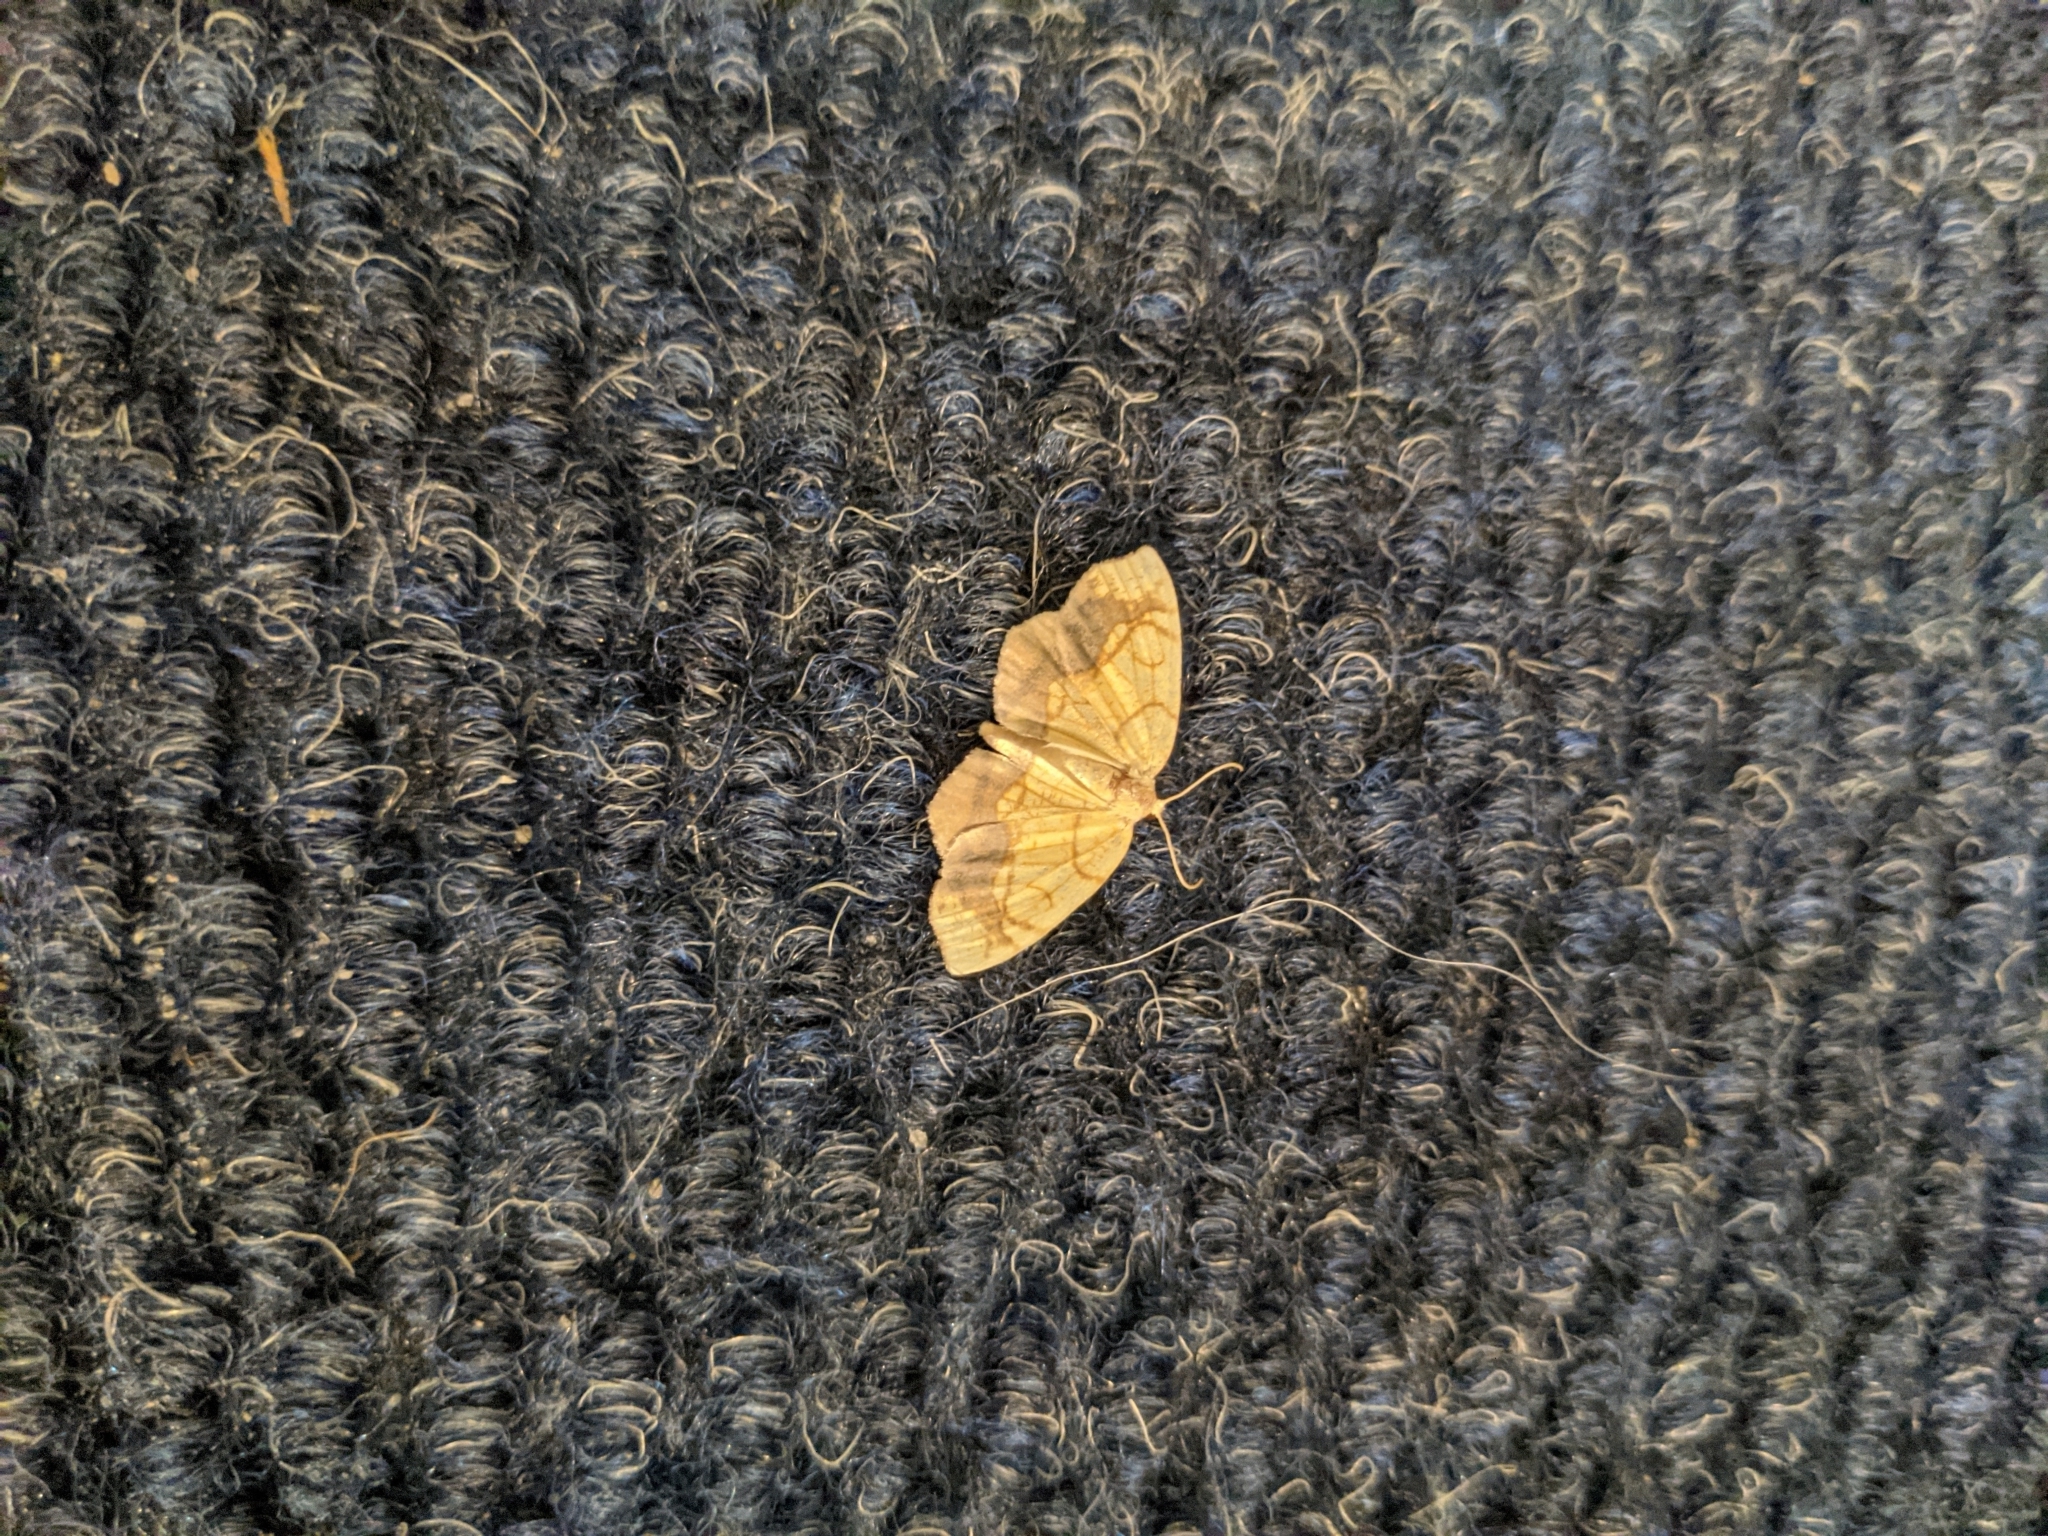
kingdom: Animalia
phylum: Arthropoda
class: Insecta
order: Lepidoptera
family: Geometridae
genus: Nematocampa
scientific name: Nematocampa resistaria
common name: Horned spanworm moth
